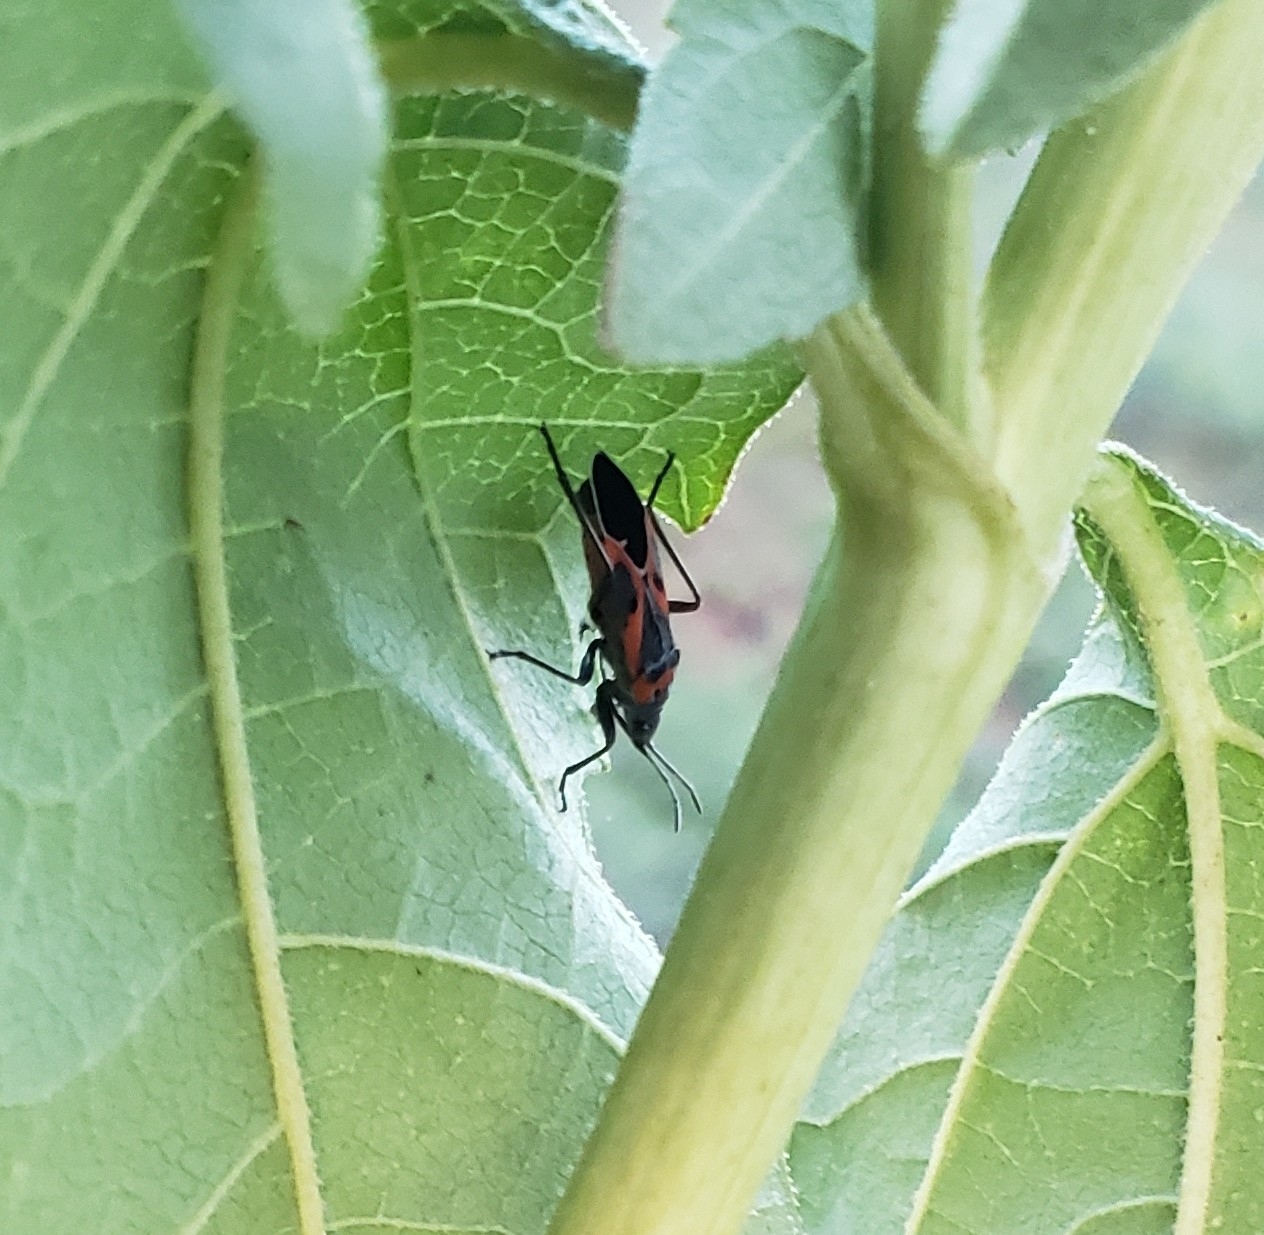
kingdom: Animalia
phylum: Arthropoda
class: Insecta
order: Hemiptera
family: Lygaeidae
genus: Lygaeus
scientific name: Lygaeus kalmii
